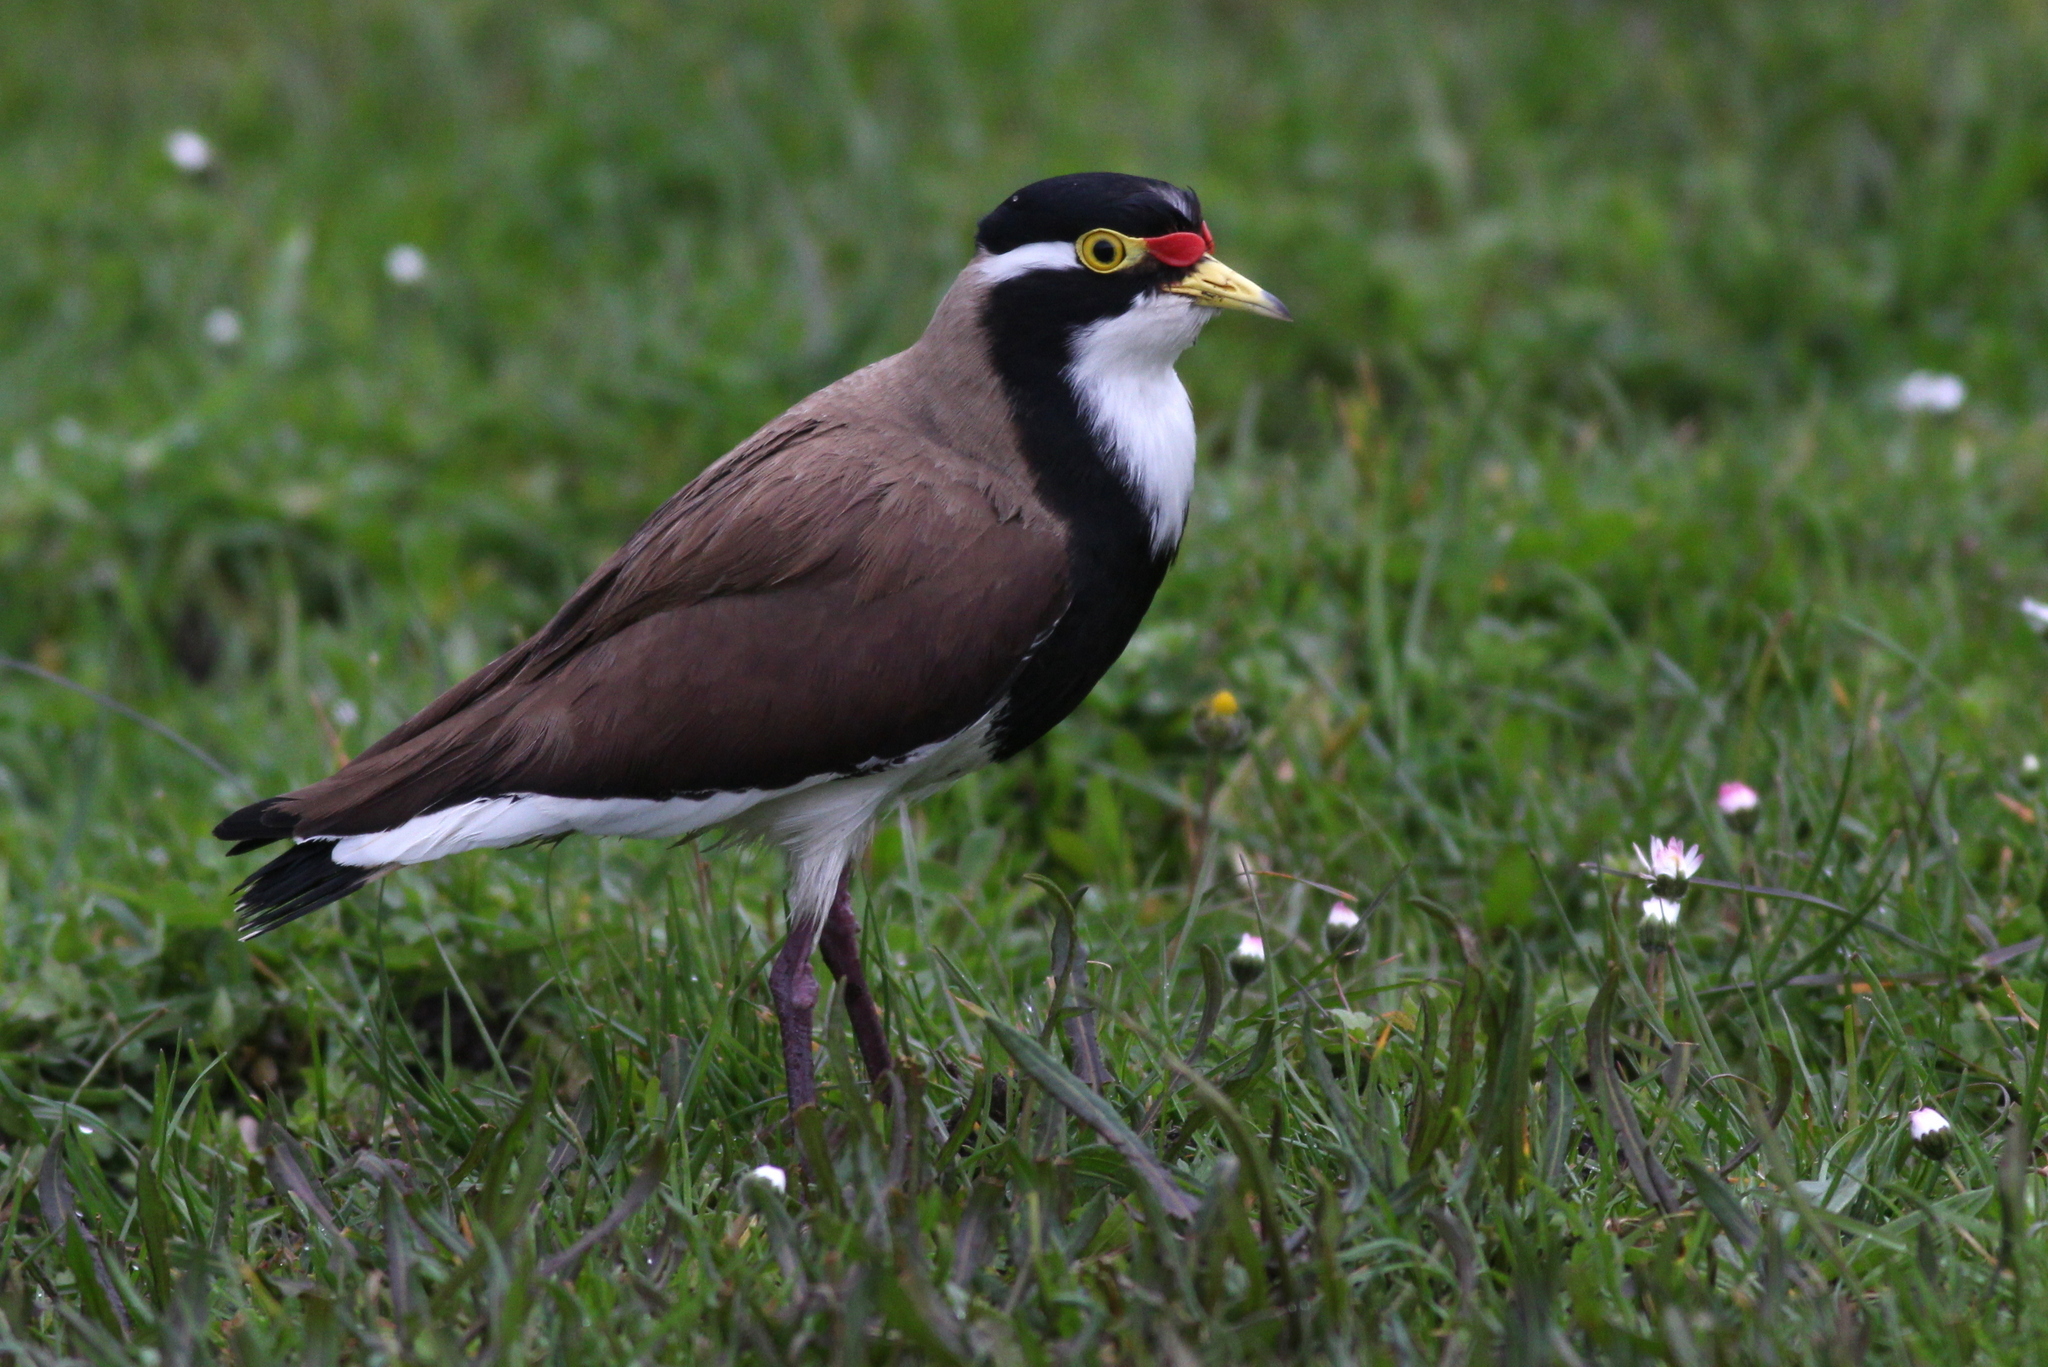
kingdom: Animalia
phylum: Chordata
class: Aves
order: Charadriiformes
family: Charadriidae
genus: Vanellus
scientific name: Vanellus tricolor
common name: Banded lapwing
